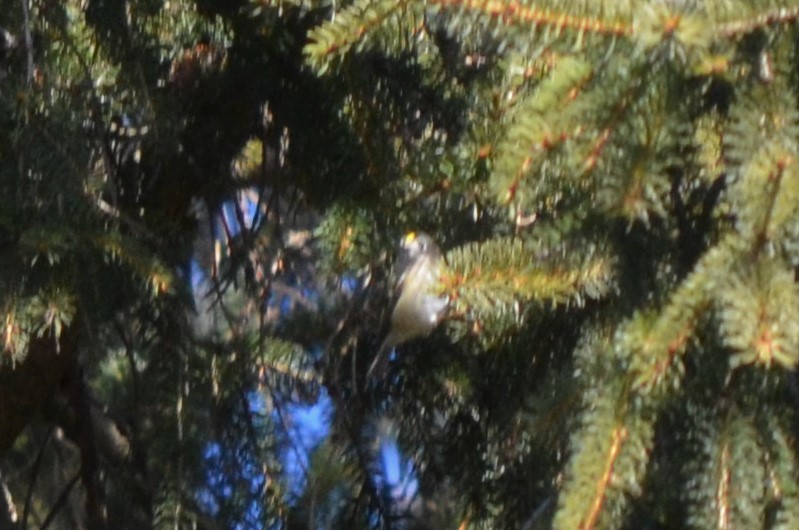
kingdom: Animalia
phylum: Chordata
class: Aves
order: Passeriformes
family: Regulidae
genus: Regulus
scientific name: Regulus regulus
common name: Goldcrest
